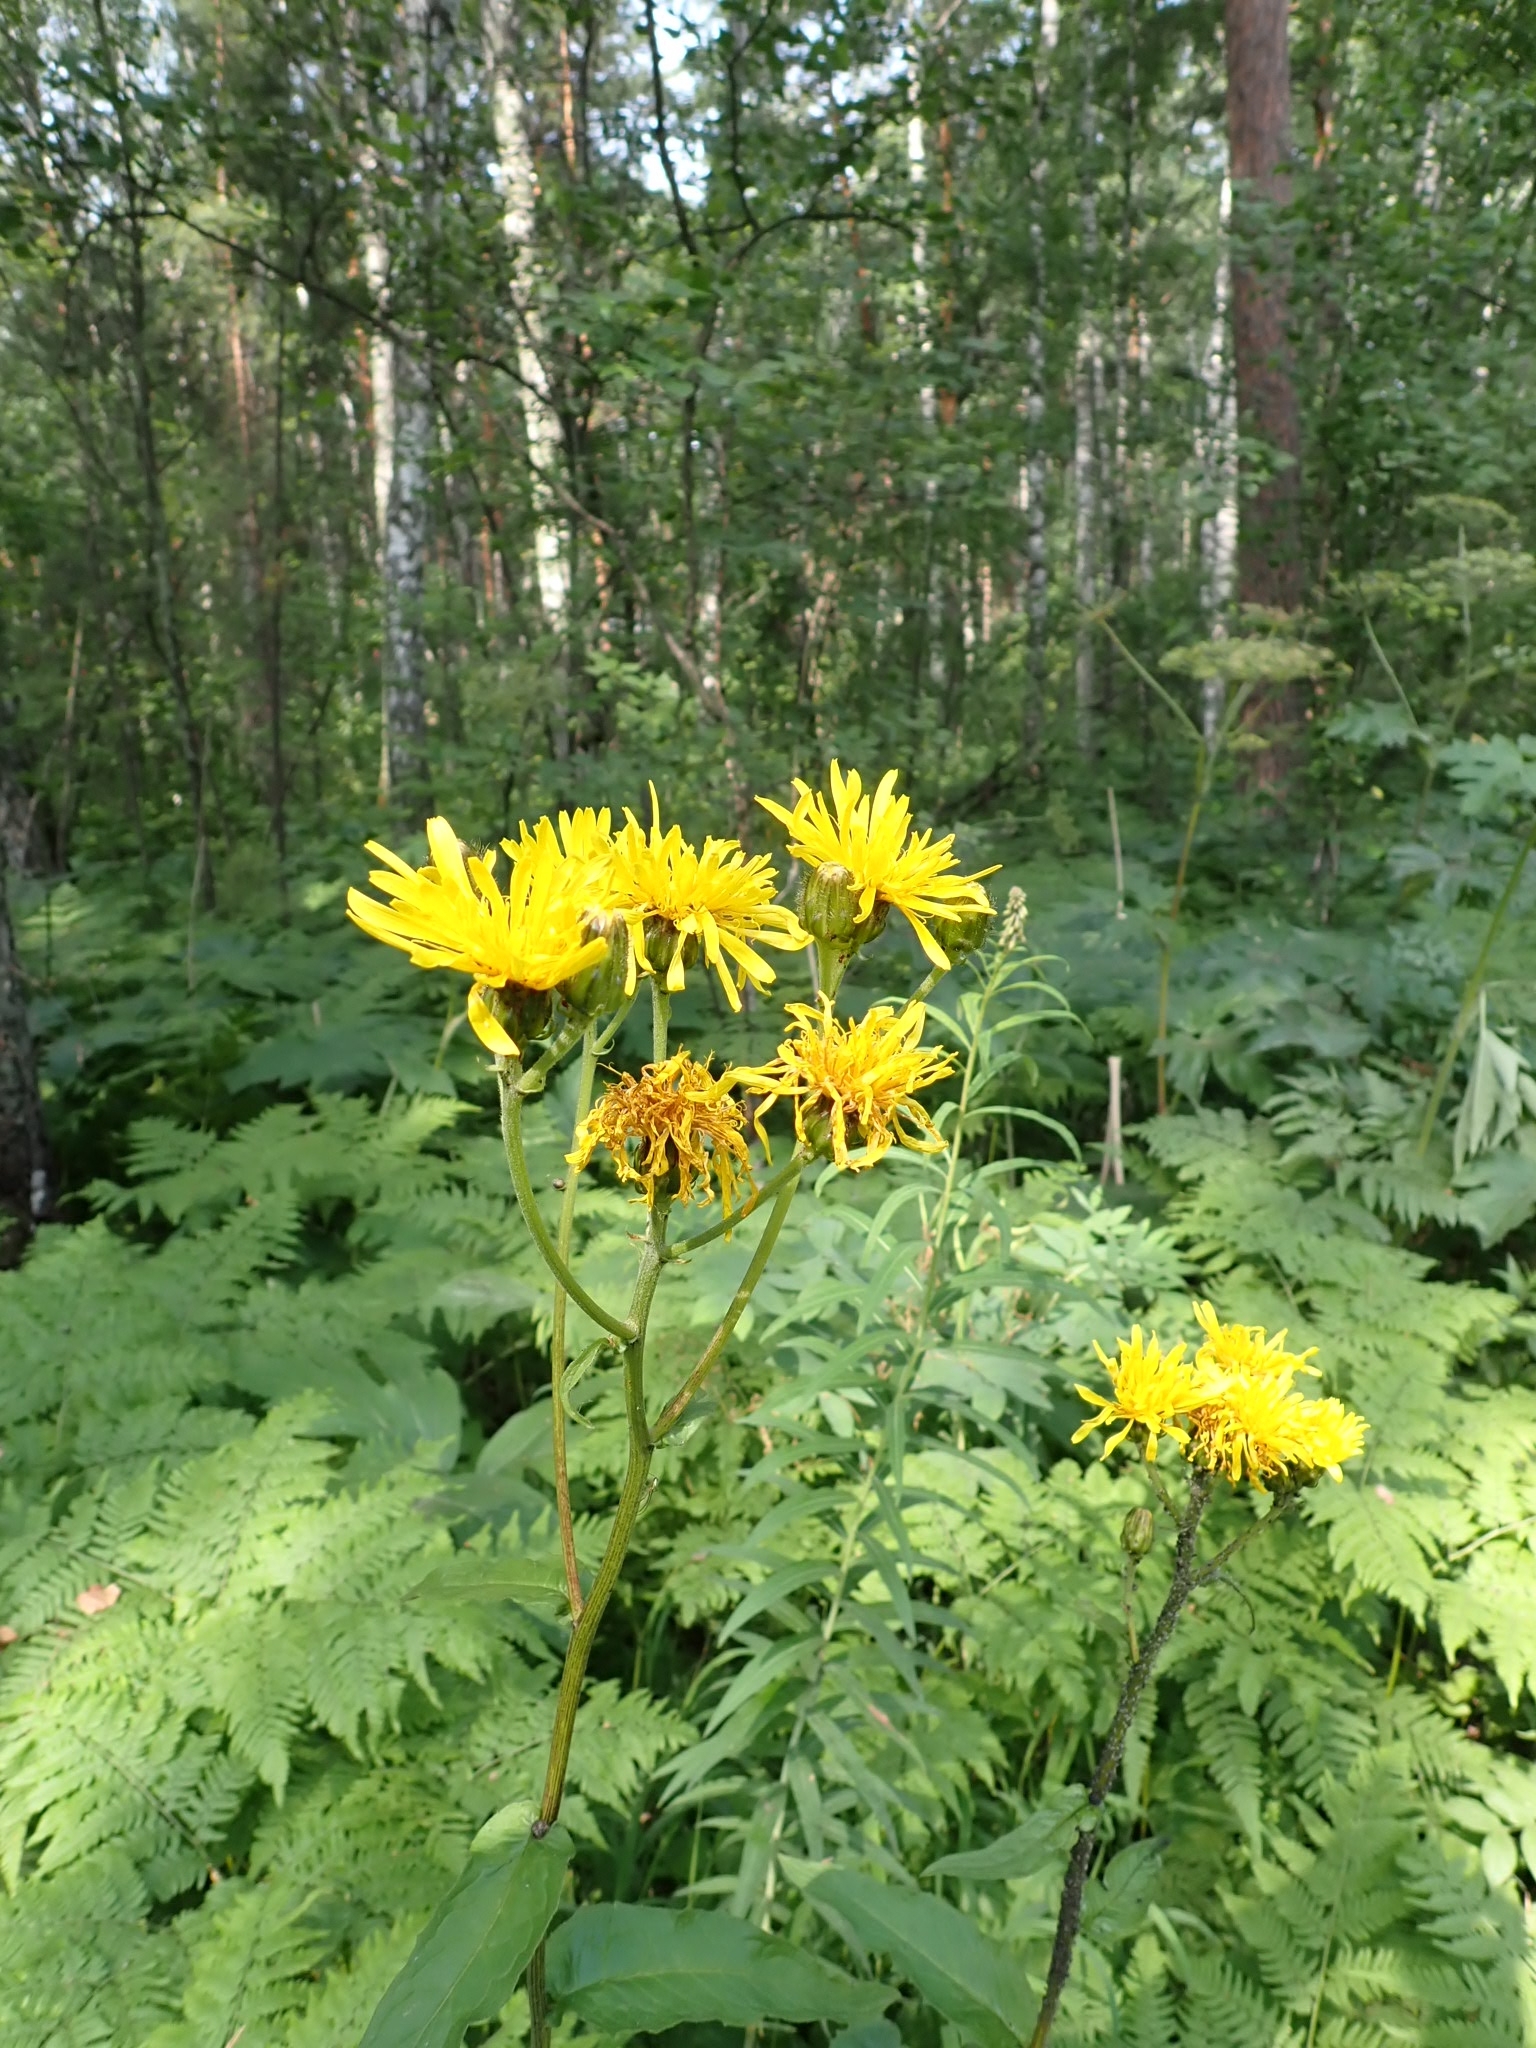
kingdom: Plantae
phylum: Tracheophyta
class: Magnoliopsida
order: Asterales
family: Asteraceae
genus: Crepis
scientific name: Crepis sibirica
